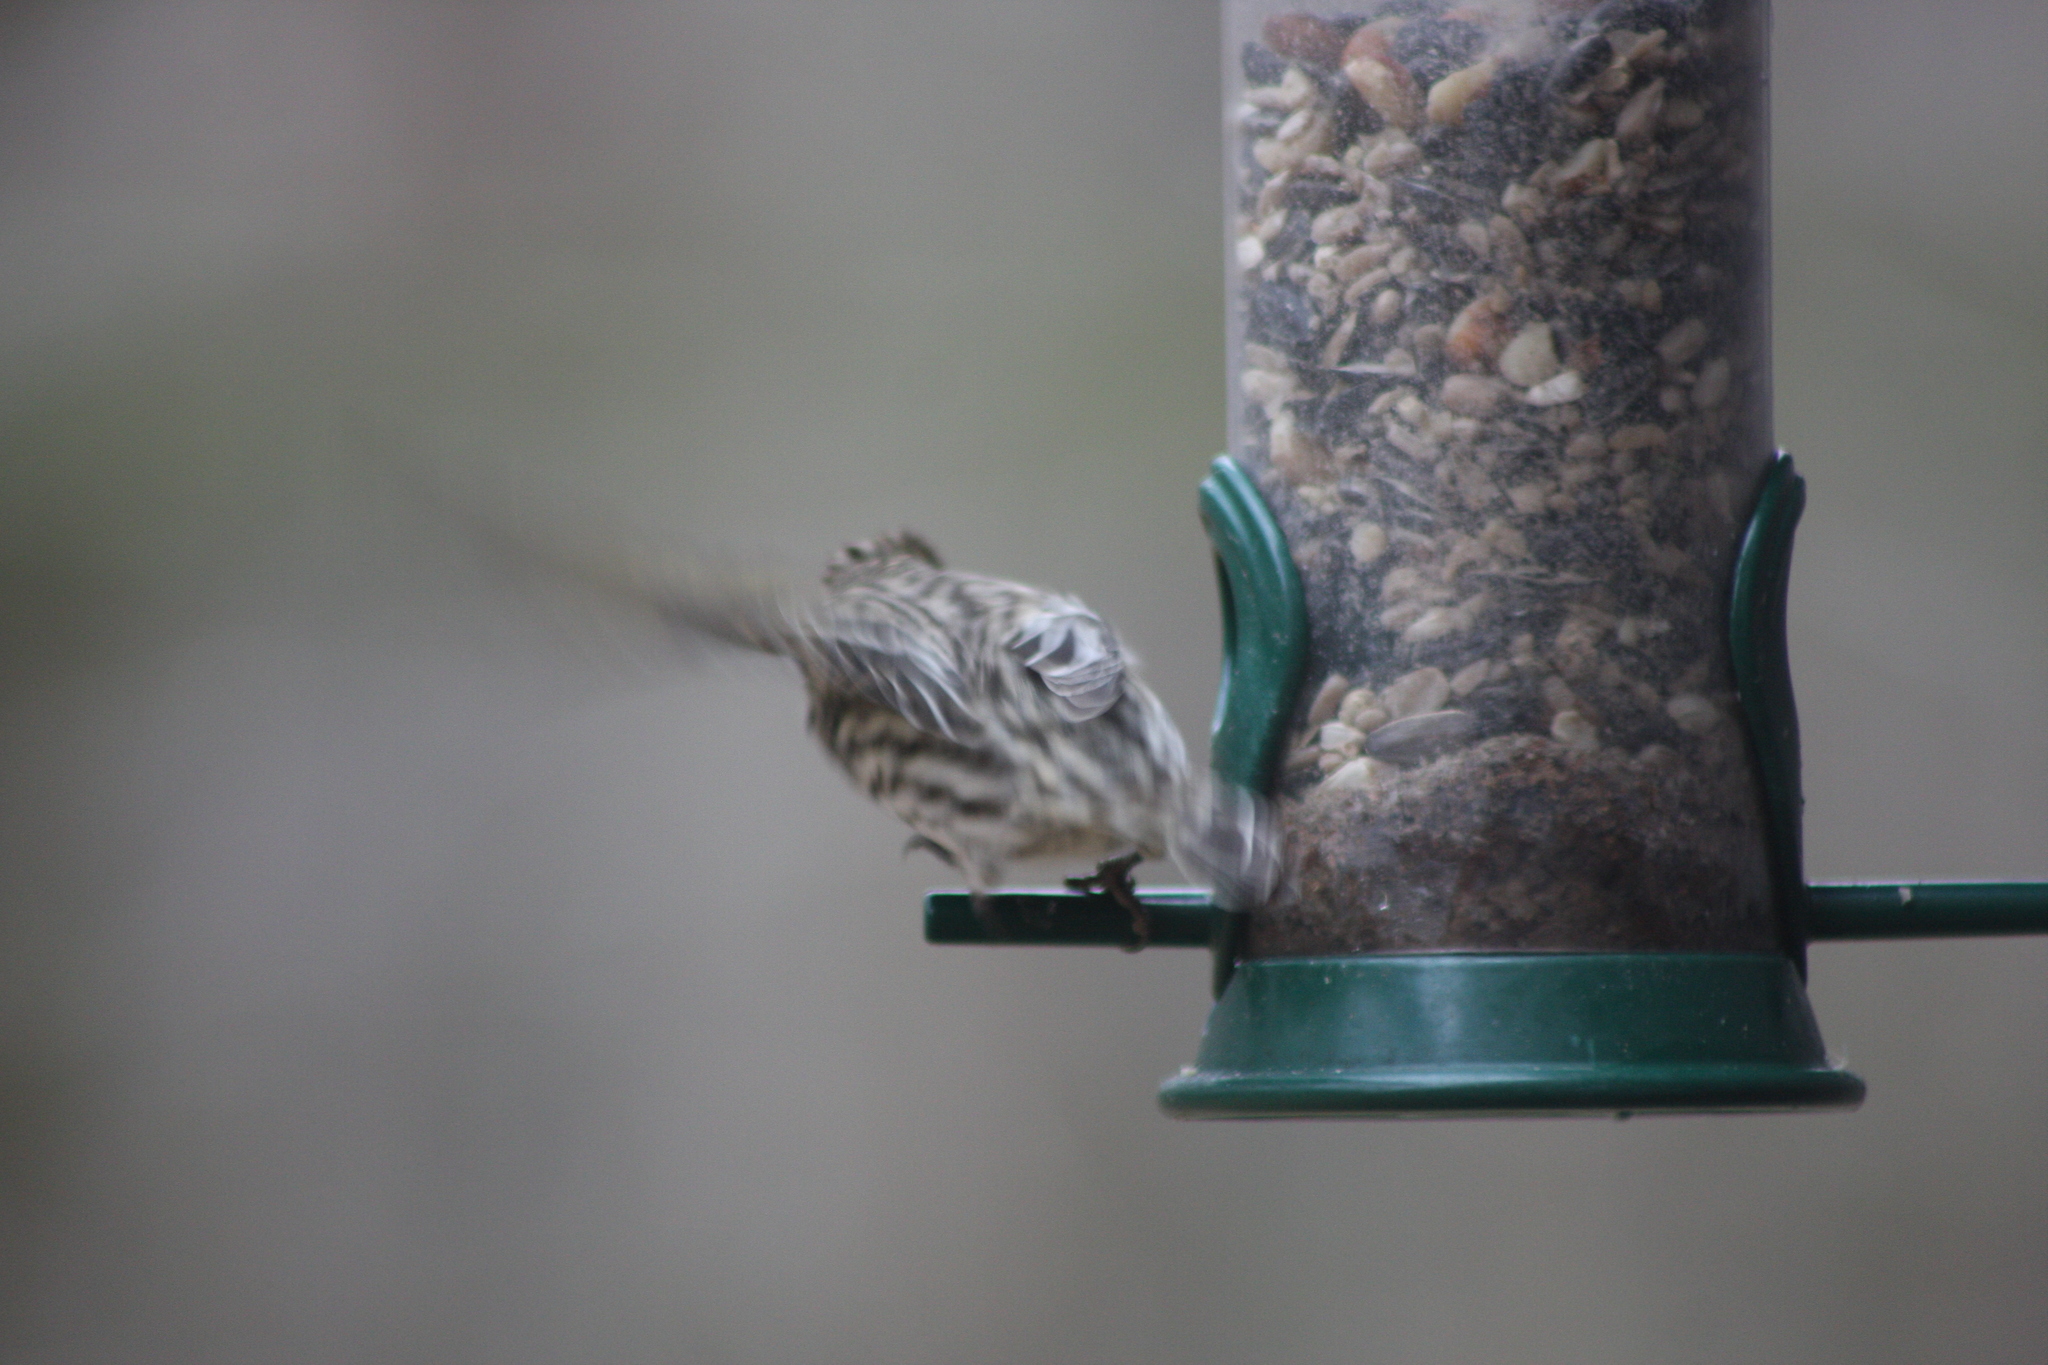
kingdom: Animalia
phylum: Chordata
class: Aves
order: Passeriformes
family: Fringillidae
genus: Spinus
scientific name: Spinus pinus
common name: Pine siskin
